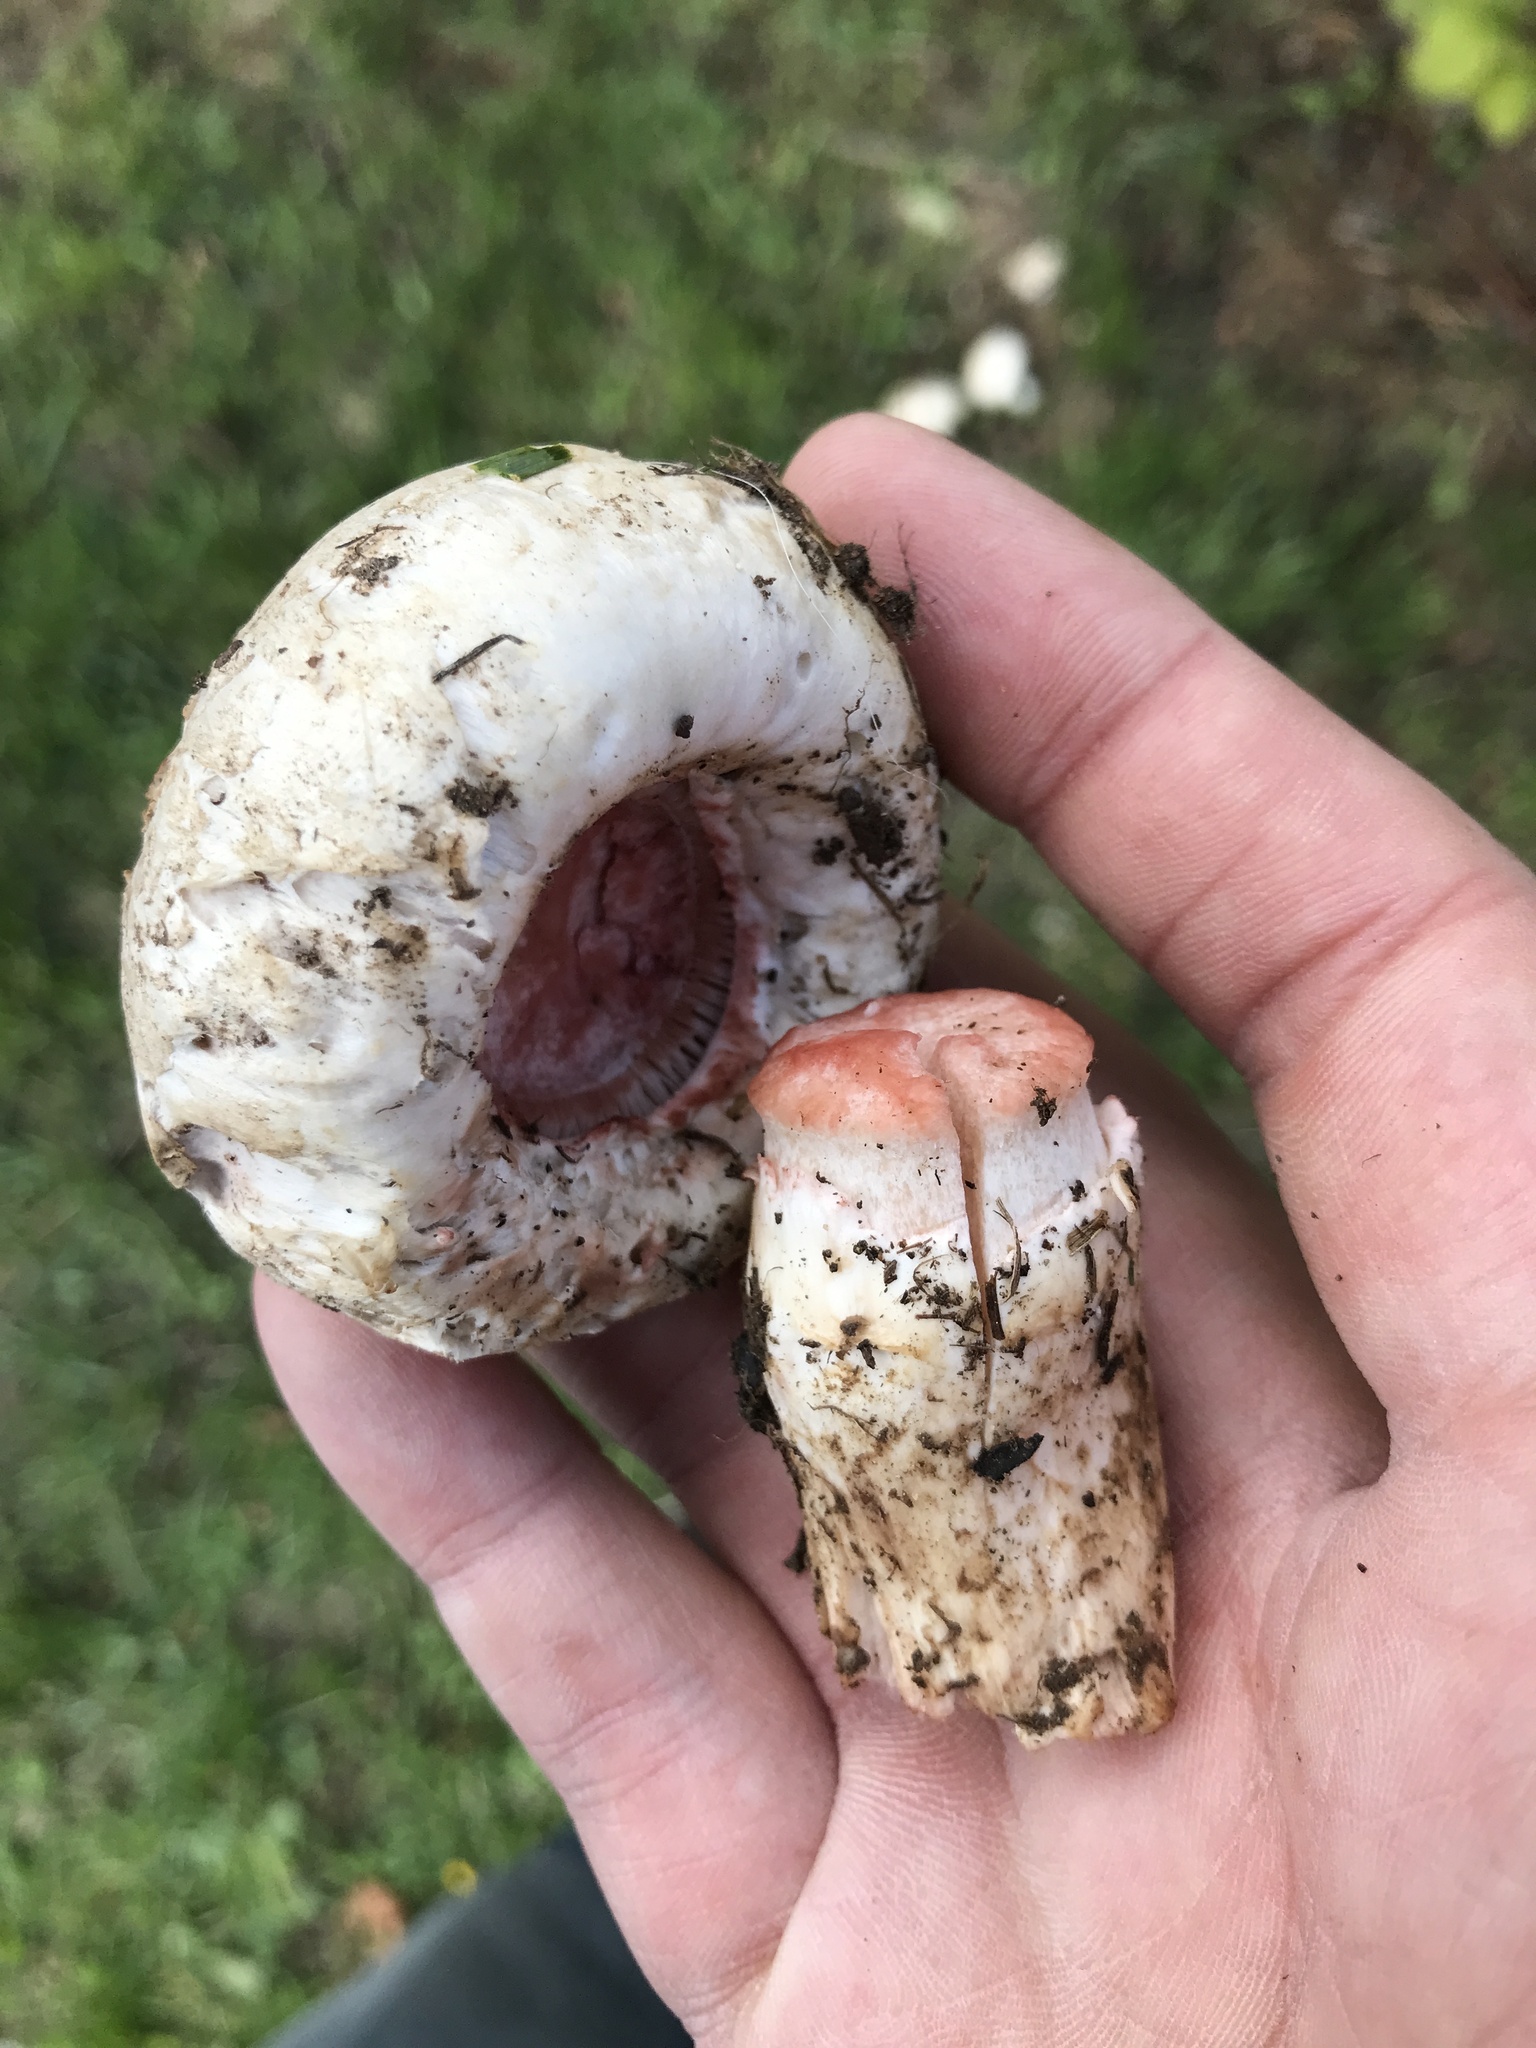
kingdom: Fungi
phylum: Basidiomycota
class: Agaricomycetes
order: Agaricales
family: Agaricaceae
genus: Agaricus
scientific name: Agaricus bernardii
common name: Salty mushroom
